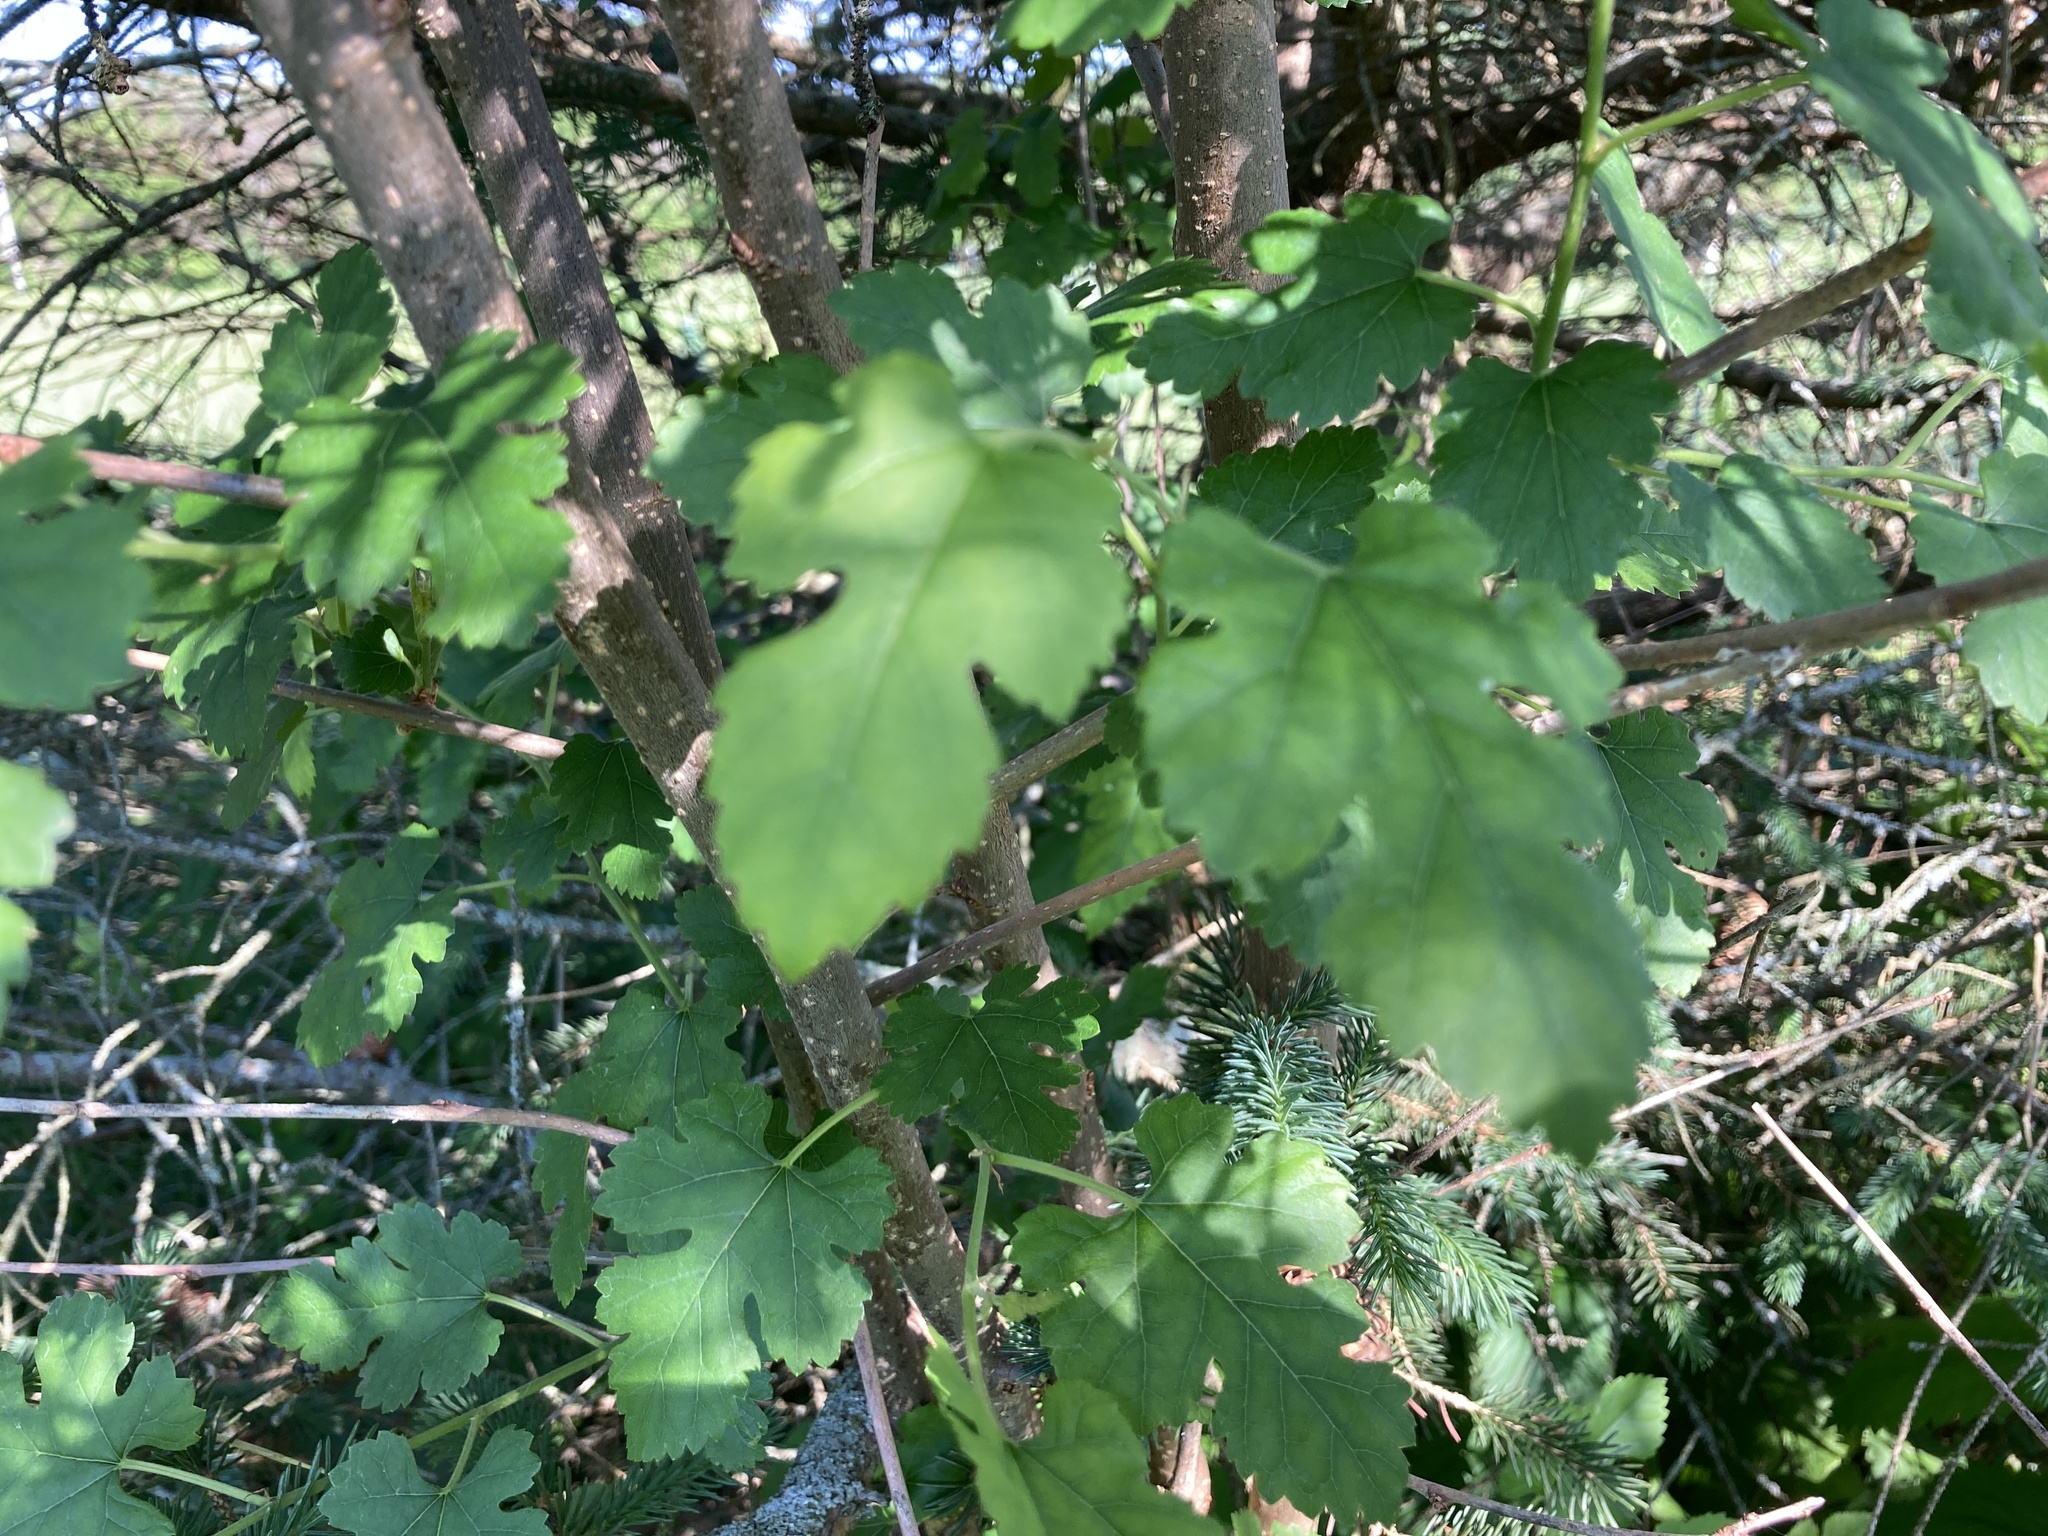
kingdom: Plantae
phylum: Tracheophyta
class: Magnoliopsida
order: Rosales
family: Moraceae
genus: Morus
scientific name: Morus alba
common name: White mulberry
